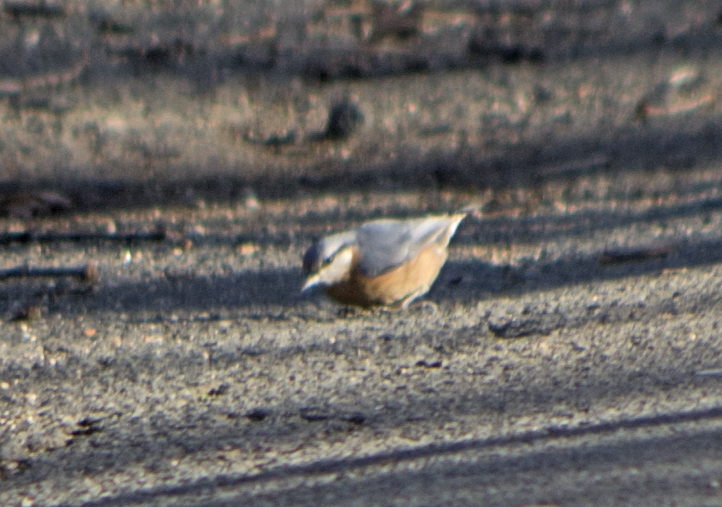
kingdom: Animalia
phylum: Chordata
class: Aves
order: Passeriformes
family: Sittidae
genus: Sitta
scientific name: Sitta europaea
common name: Eurasian nuthatch
